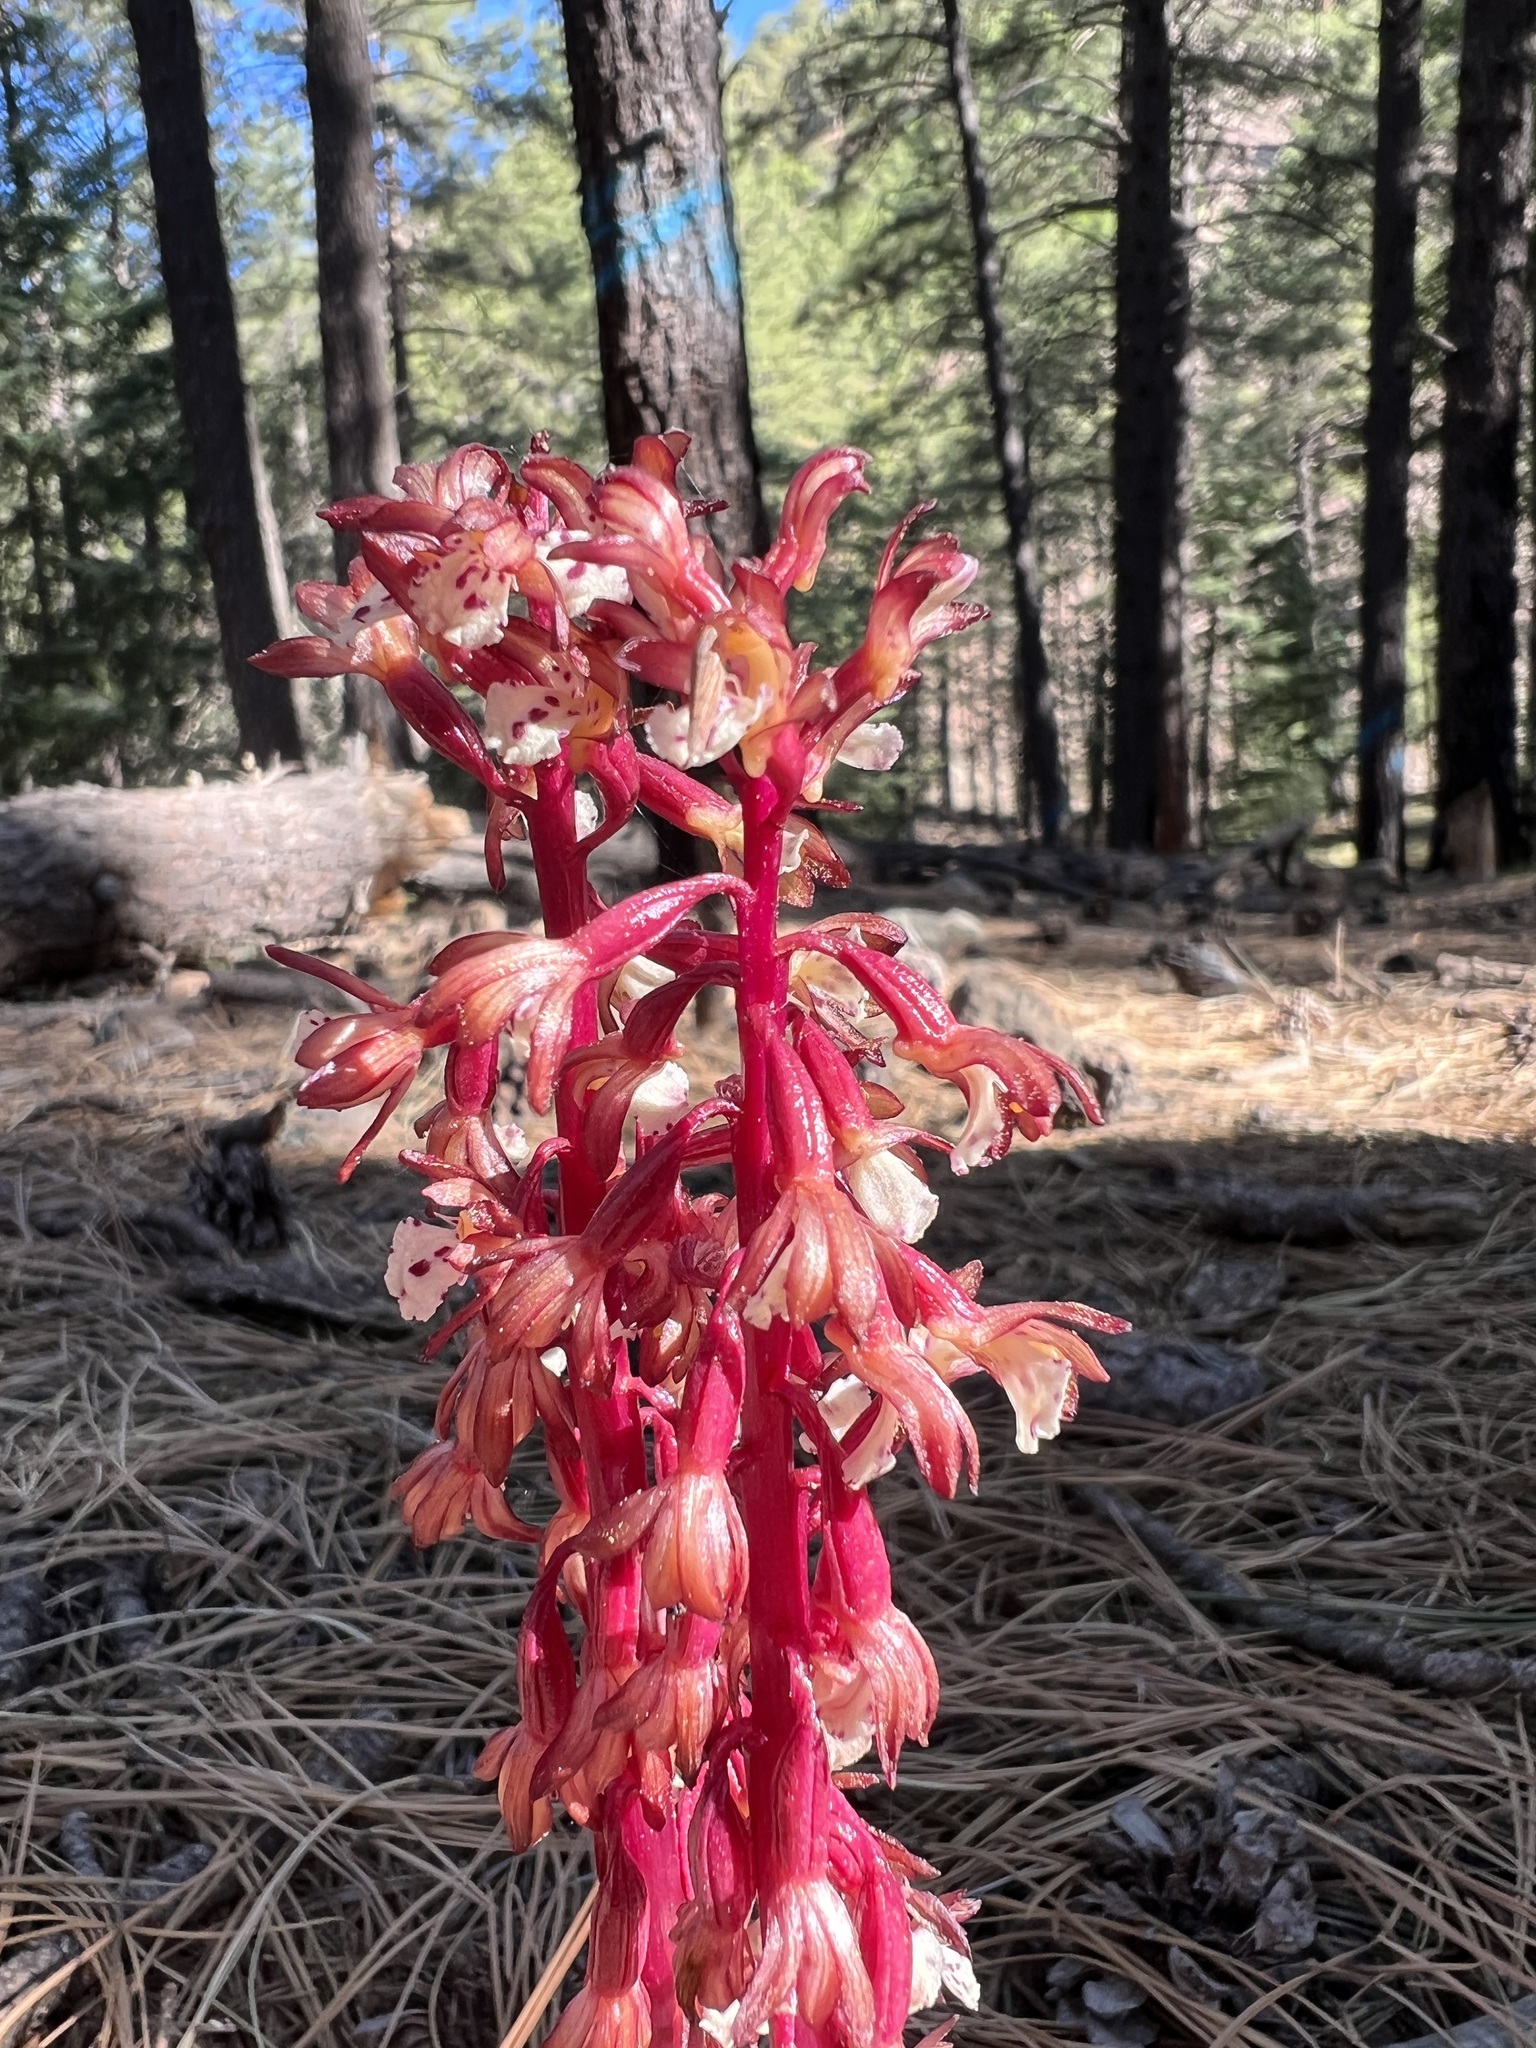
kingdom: Plantae
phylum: Tracheophyta
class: Liliopsida
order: Asparagales
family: Orchidaceae
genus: Corallorhiza
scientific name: Corallorhiza maculata
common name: Spotted coralroot
